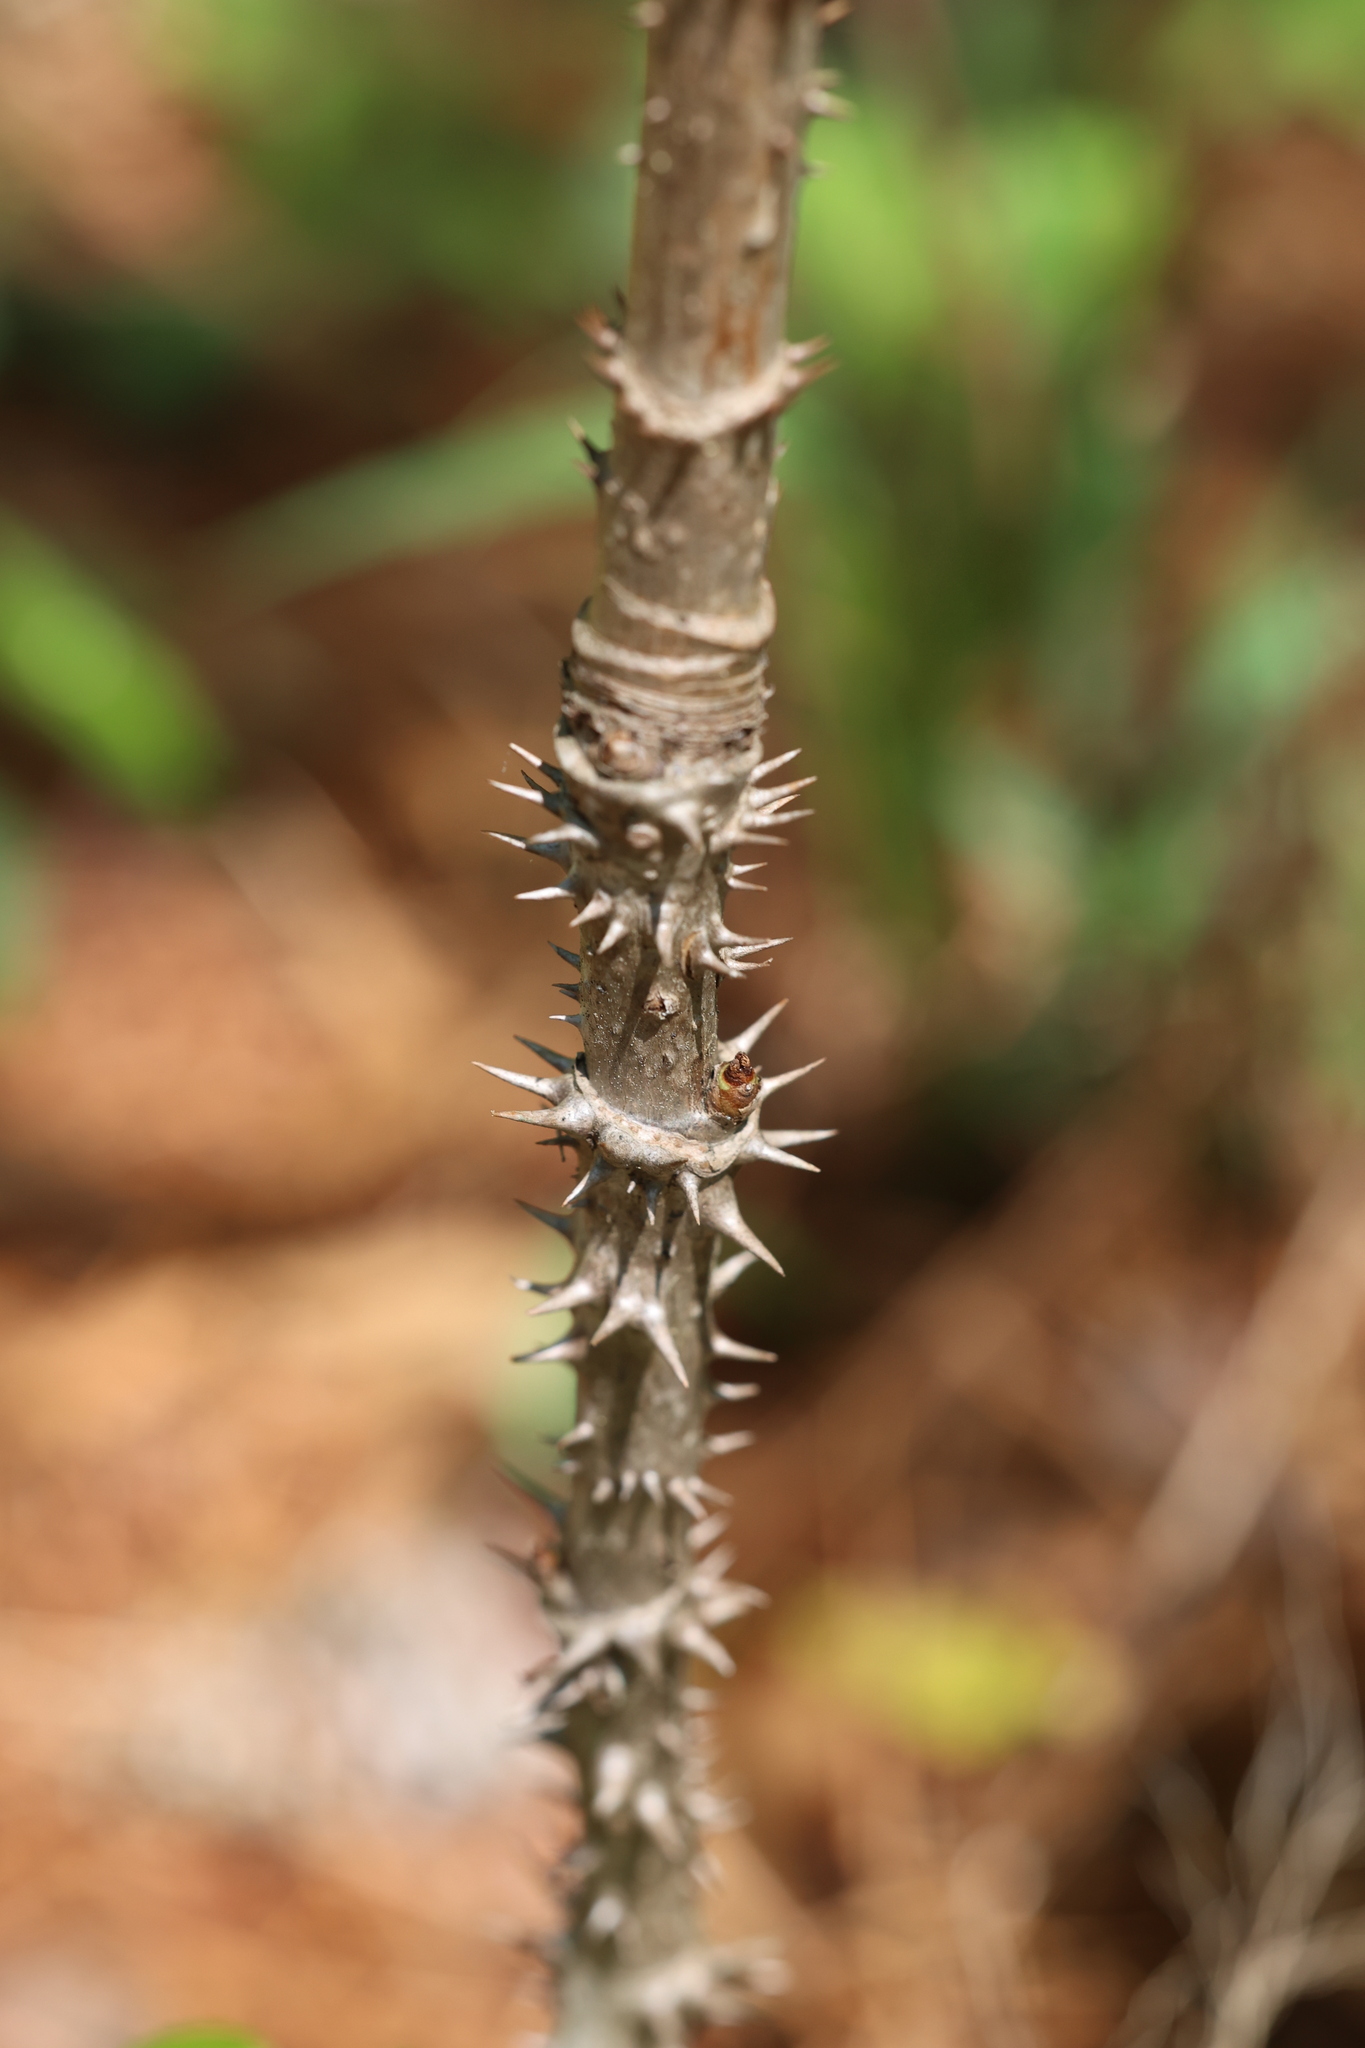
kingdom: Plantae
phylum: Tracheophyta
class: Magnoliopsida
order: Apiales
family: Araliaceae
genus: Aralia
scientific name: Aralia spinosa
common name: Hercules'-club
